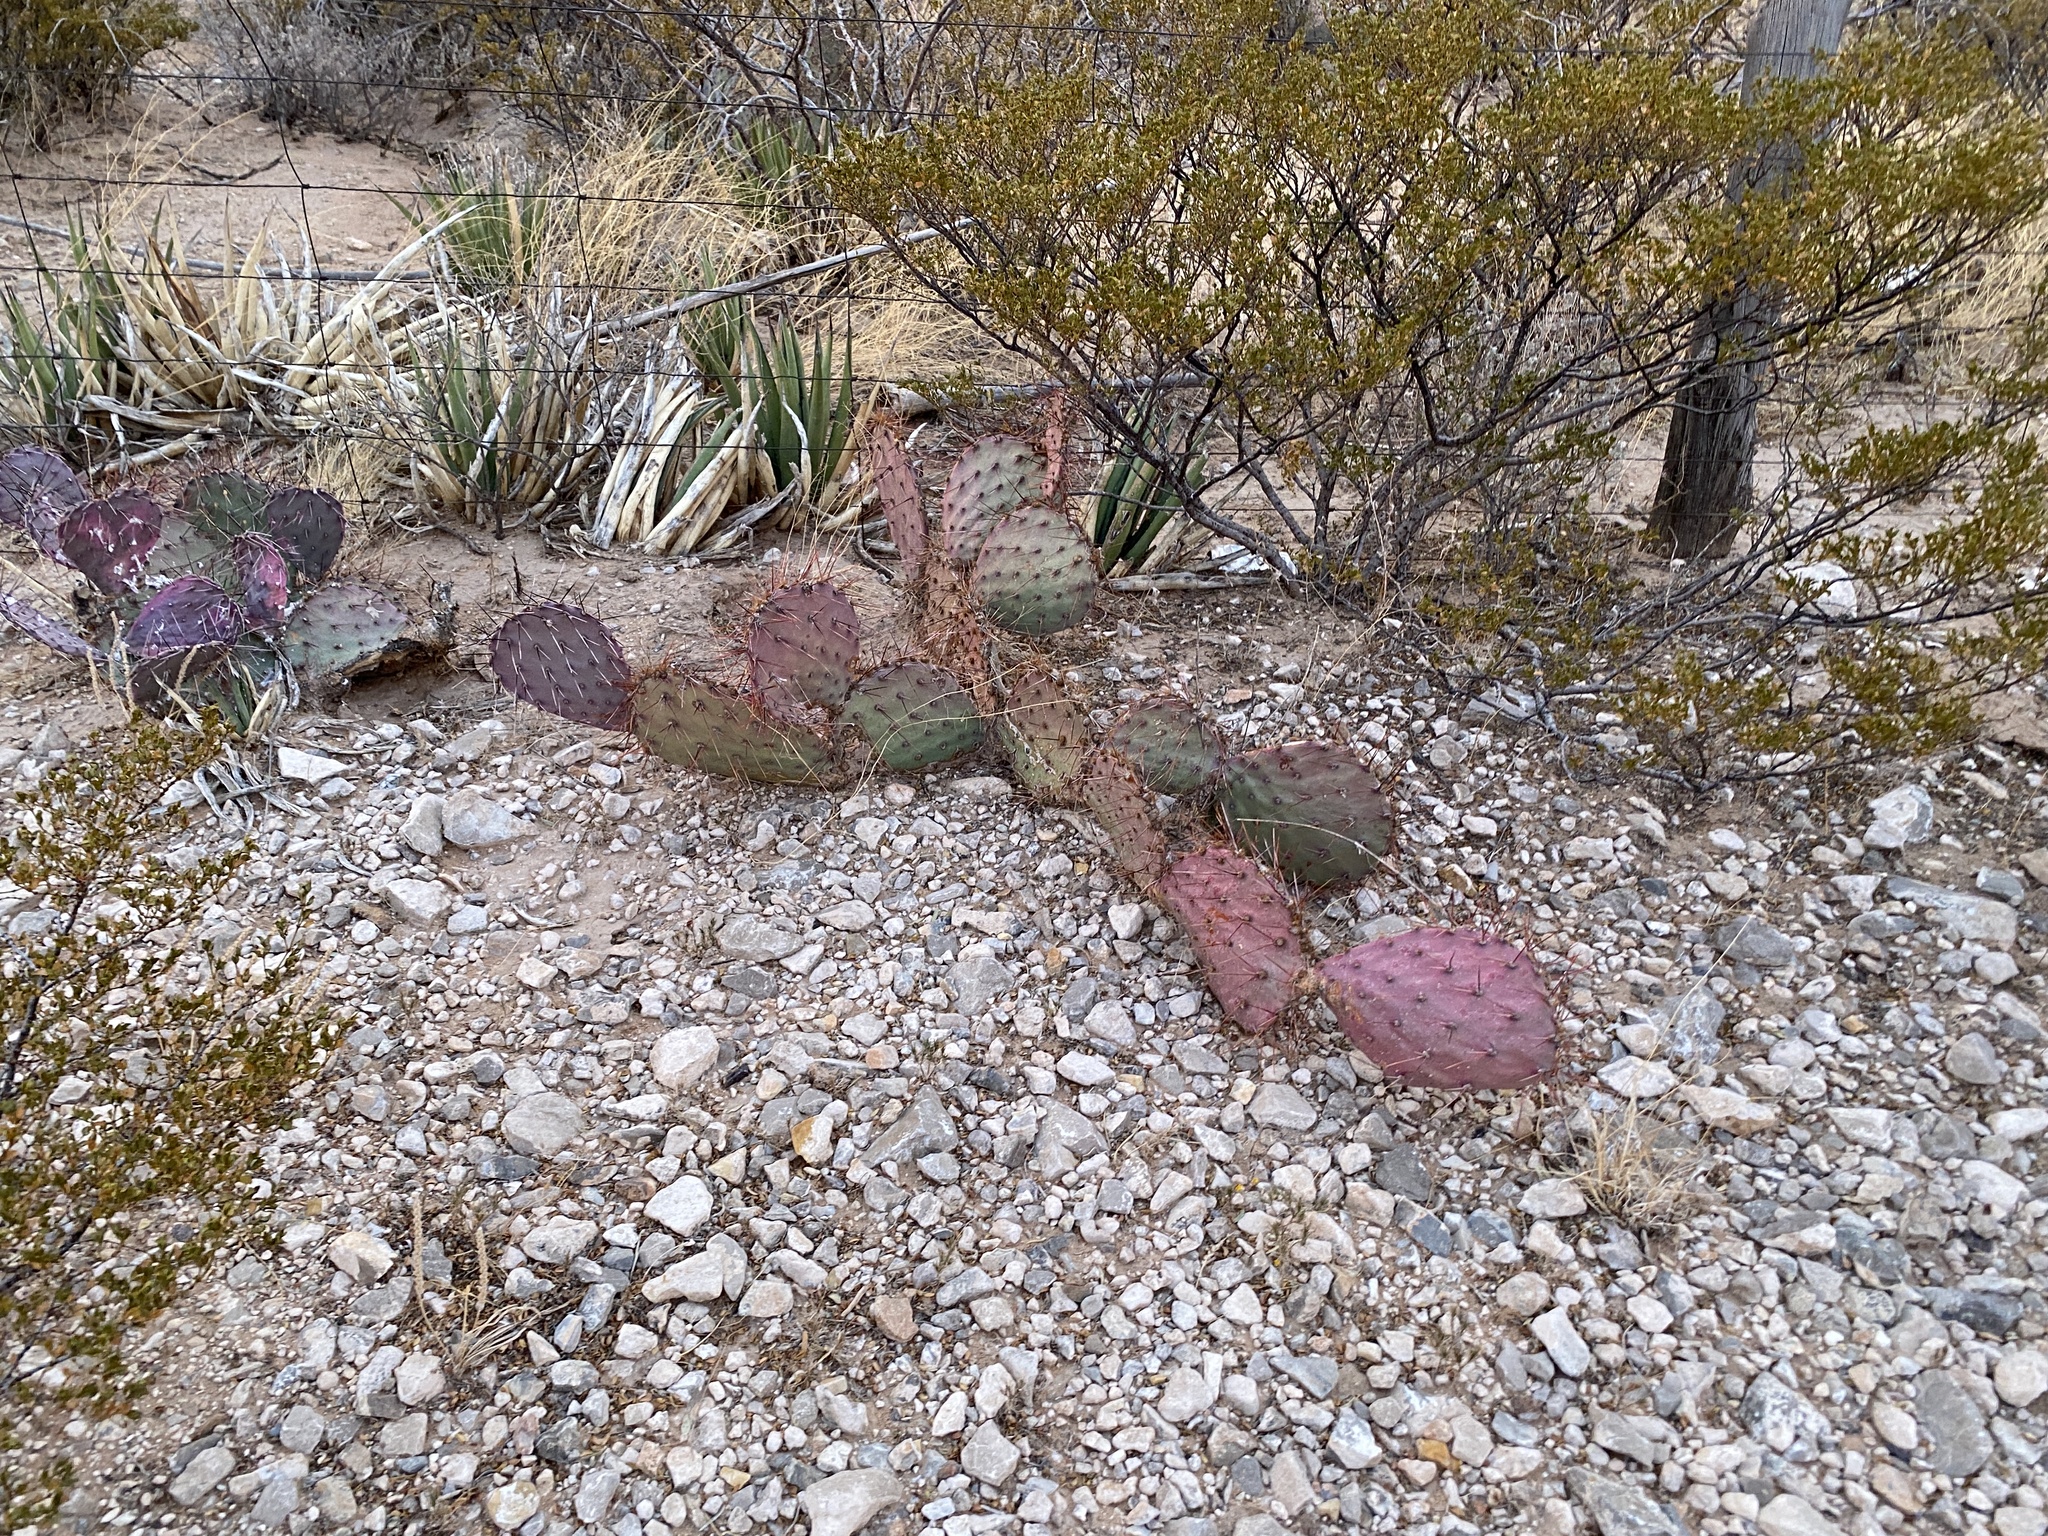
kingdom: Plantae
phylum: Tracheophyta
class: Magnoliopsida
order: Caryophyllales
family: Cactaceae
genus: Opuntia
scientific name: Opuntia macrocentra
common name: Purple prickly-pear
